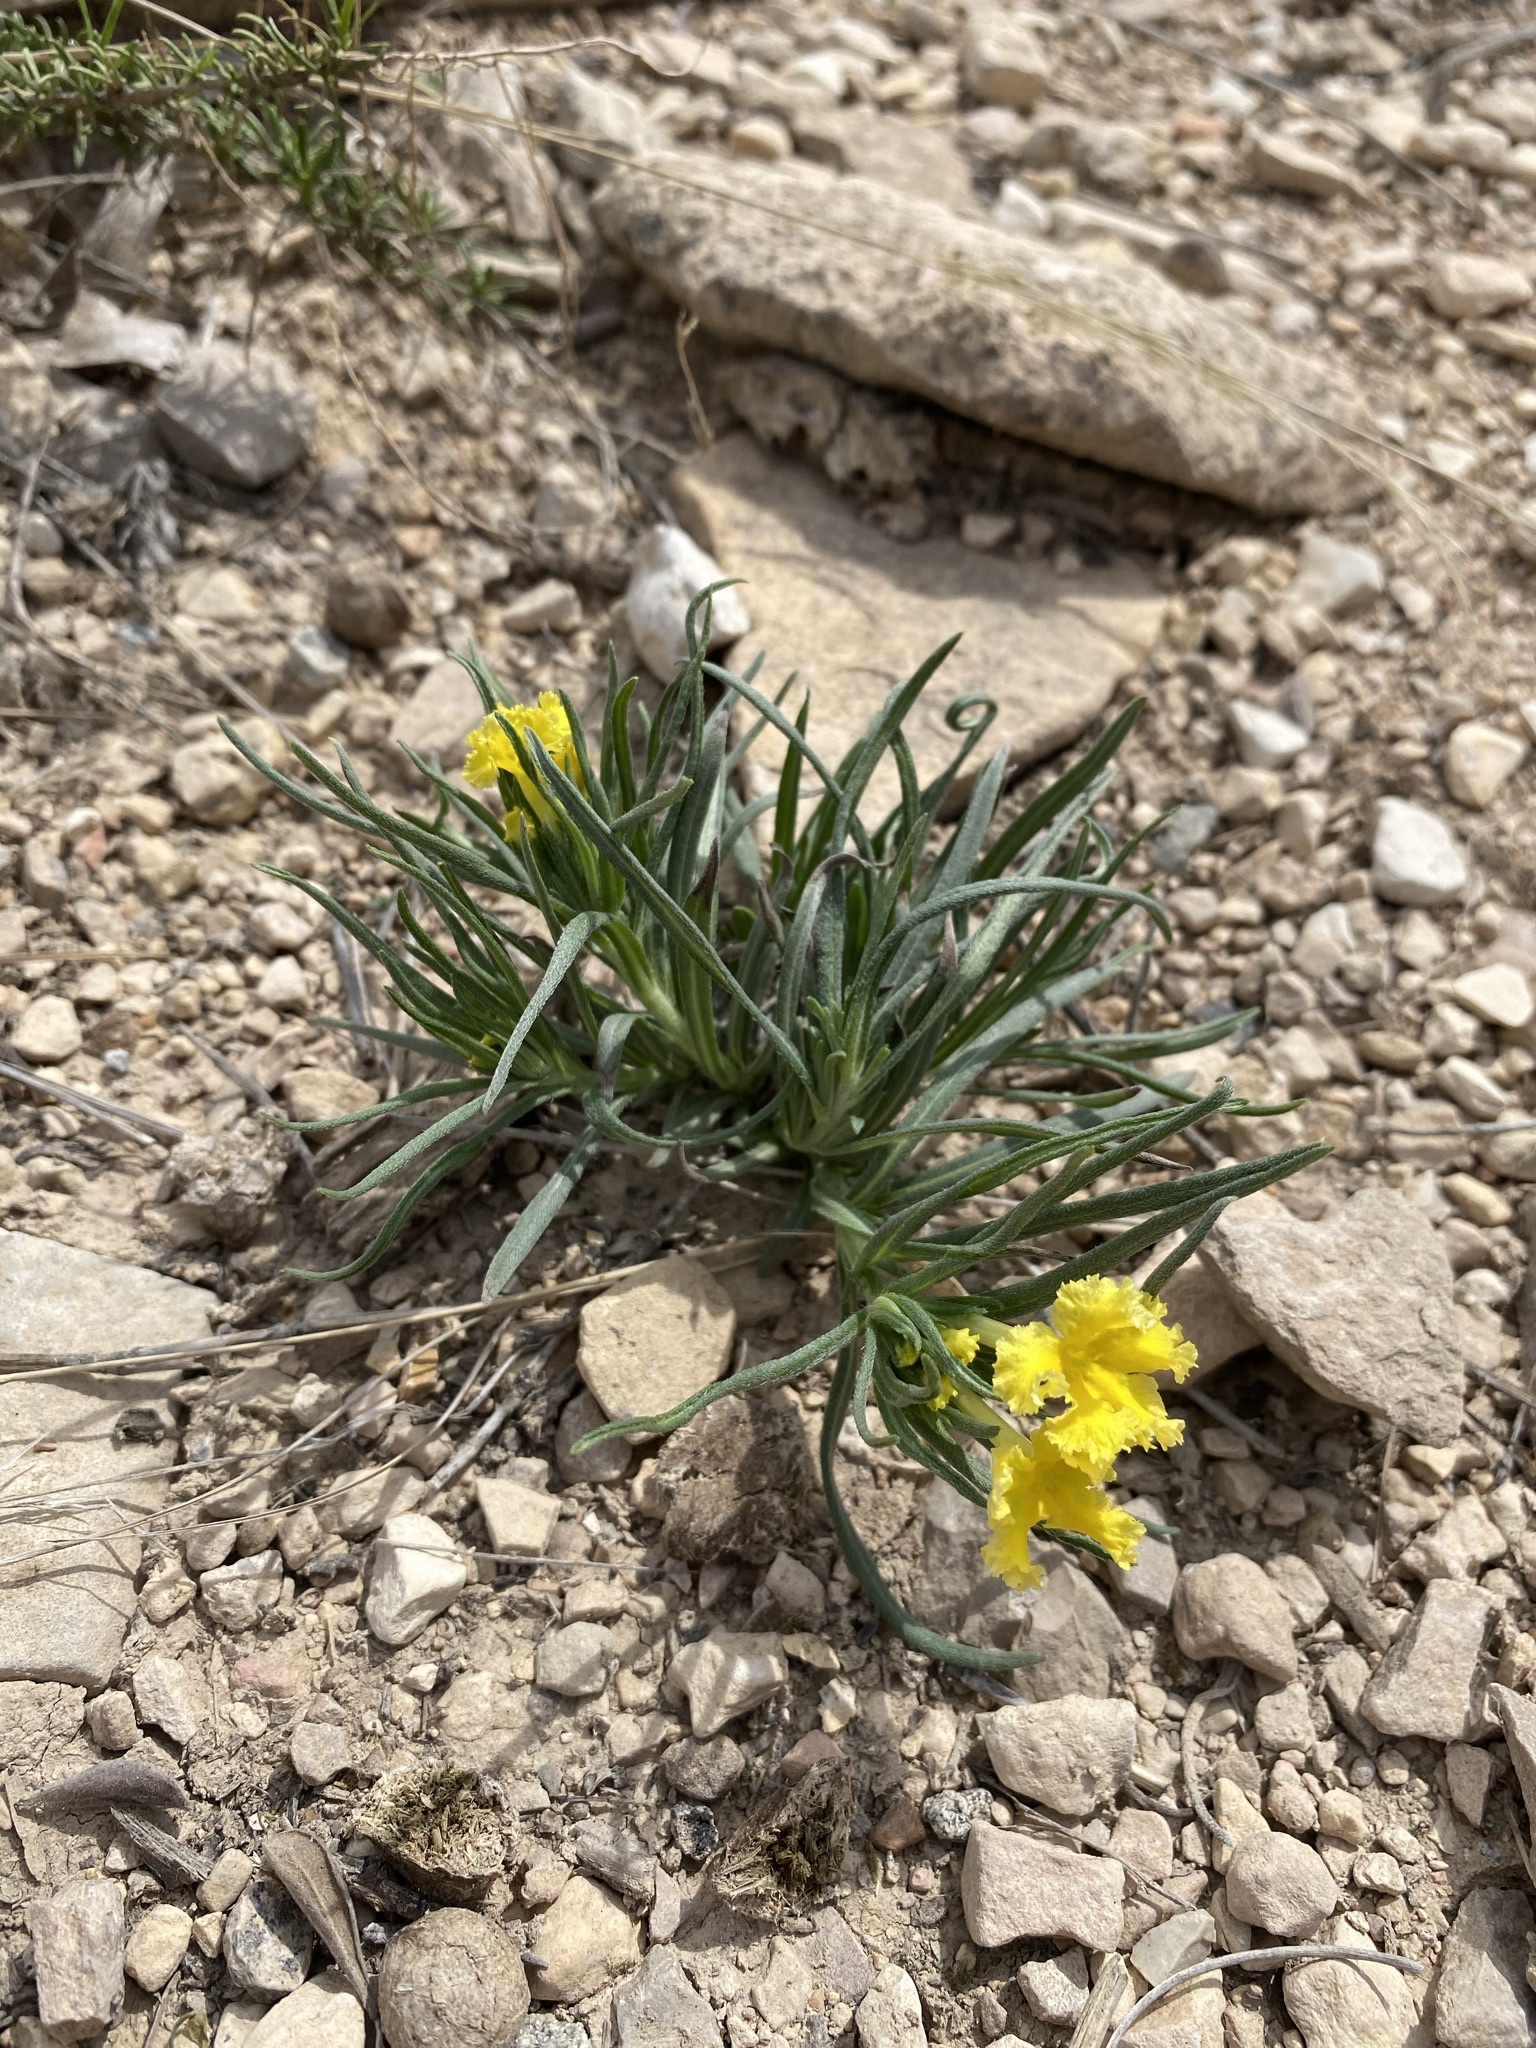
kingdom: Plantae
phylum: Tracheophyta
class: Magnoliopsida
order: Boraginales
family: Boraginaceae
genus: Lithospermum
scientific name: Lithospermum incisum
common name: Fringed gromwell
